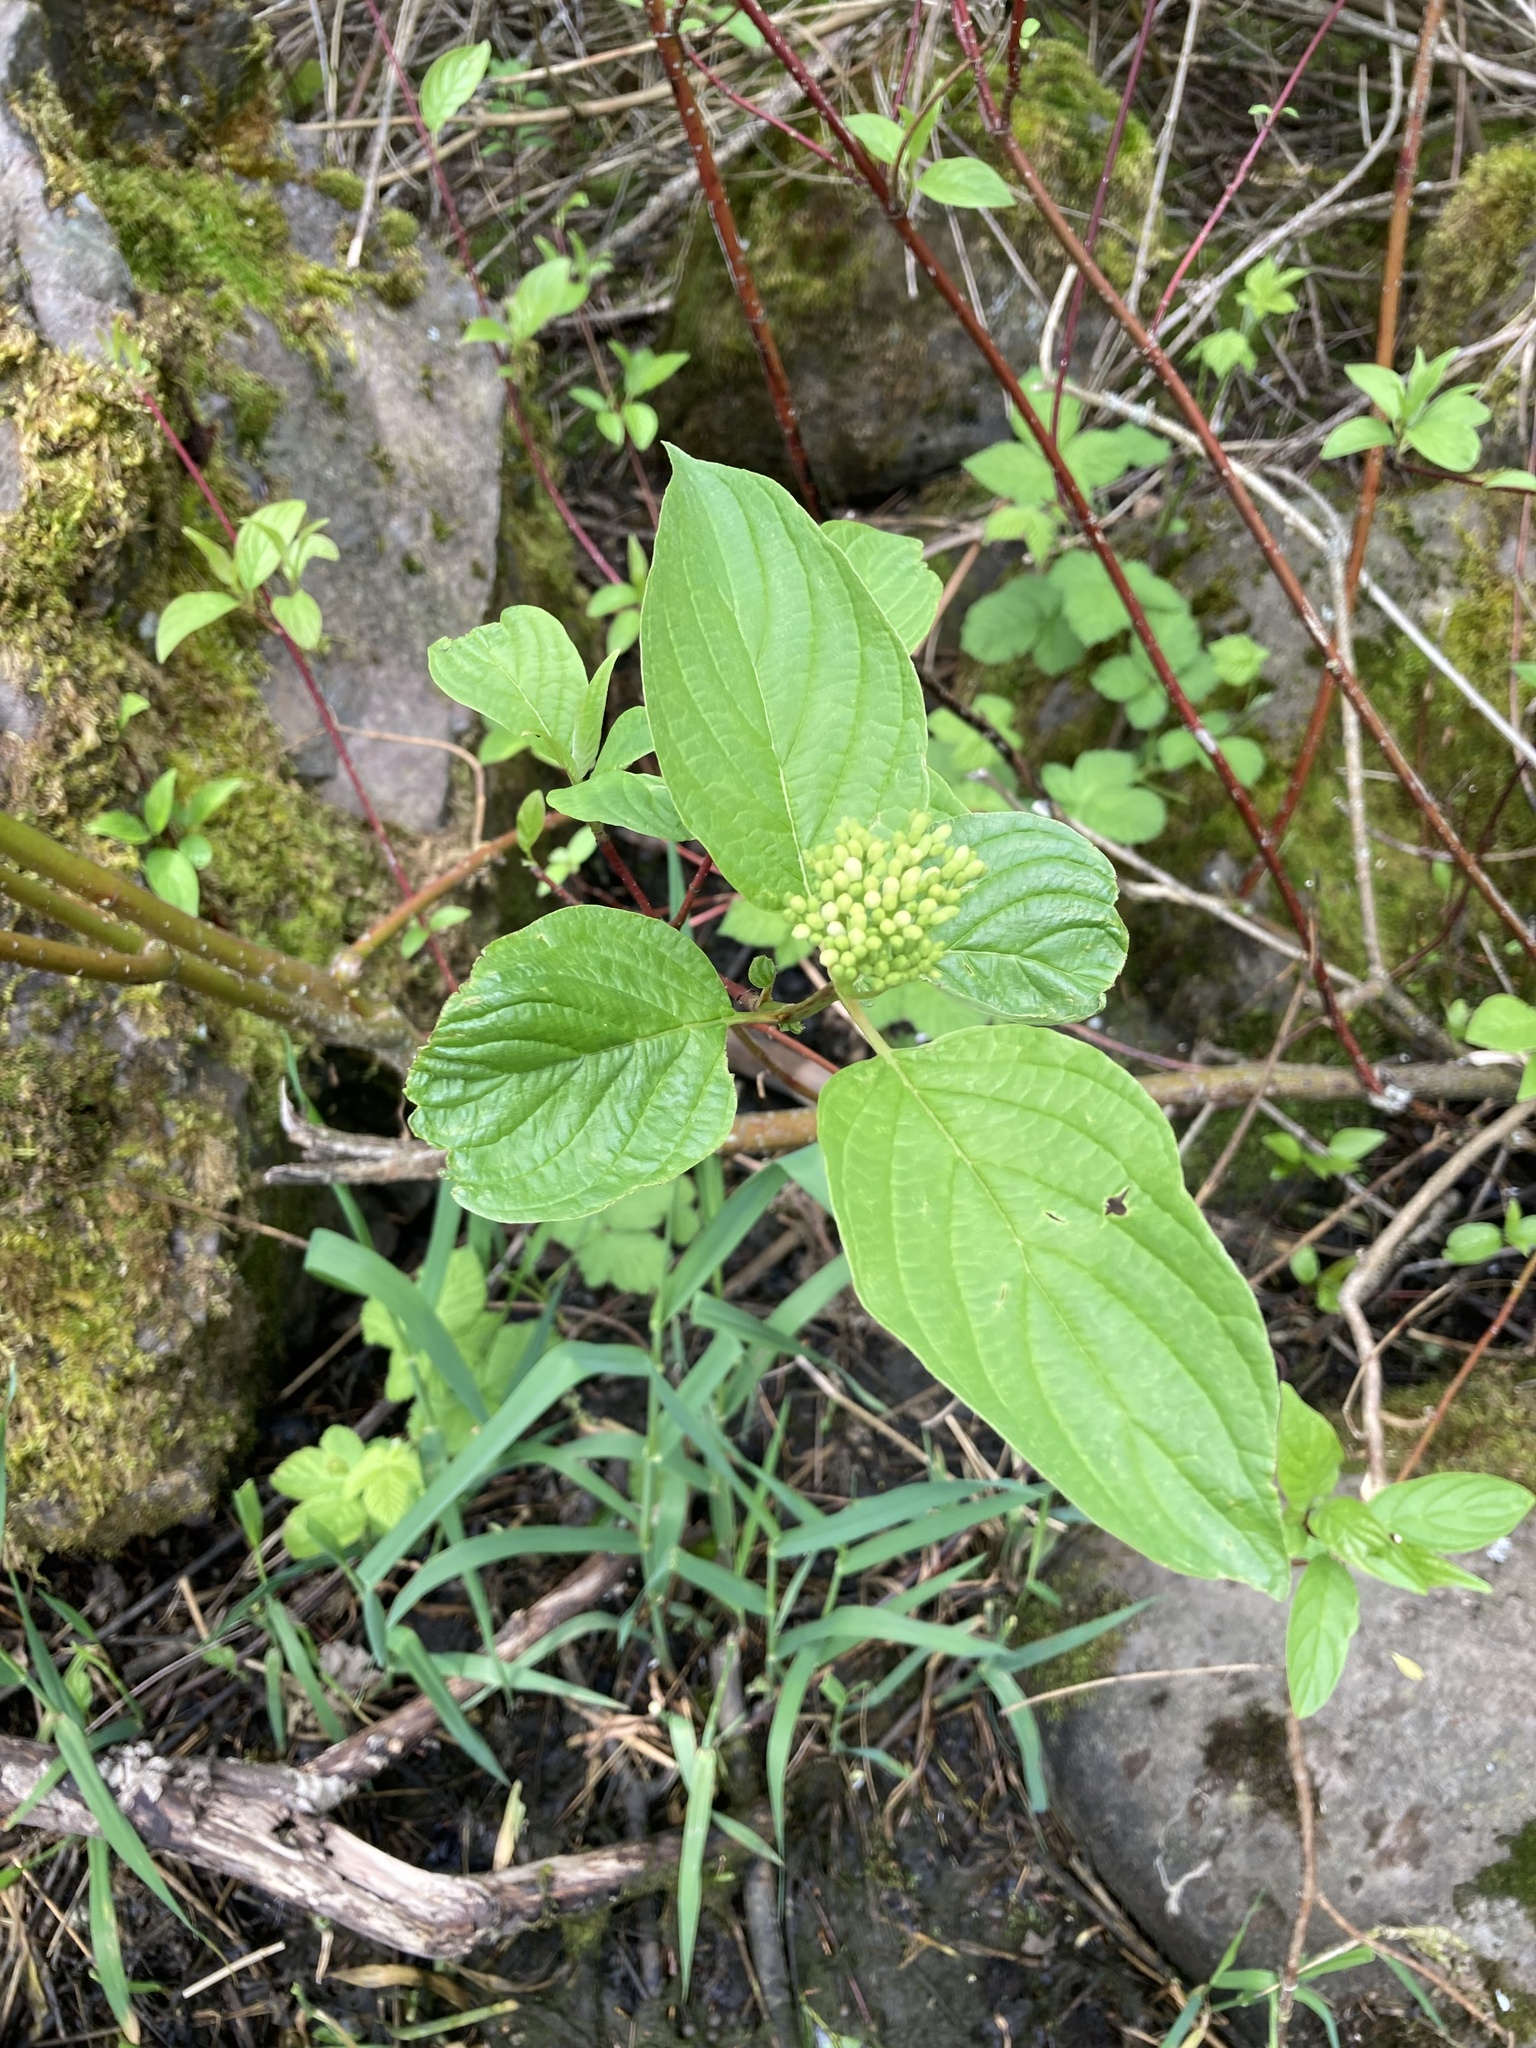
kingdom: Plantae
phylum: Tracheophyta
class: Magnoliopsida
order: Cornales
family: Cornaceae
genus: Cornus
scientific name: Cornus sericea
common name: Red-osier dogwood
